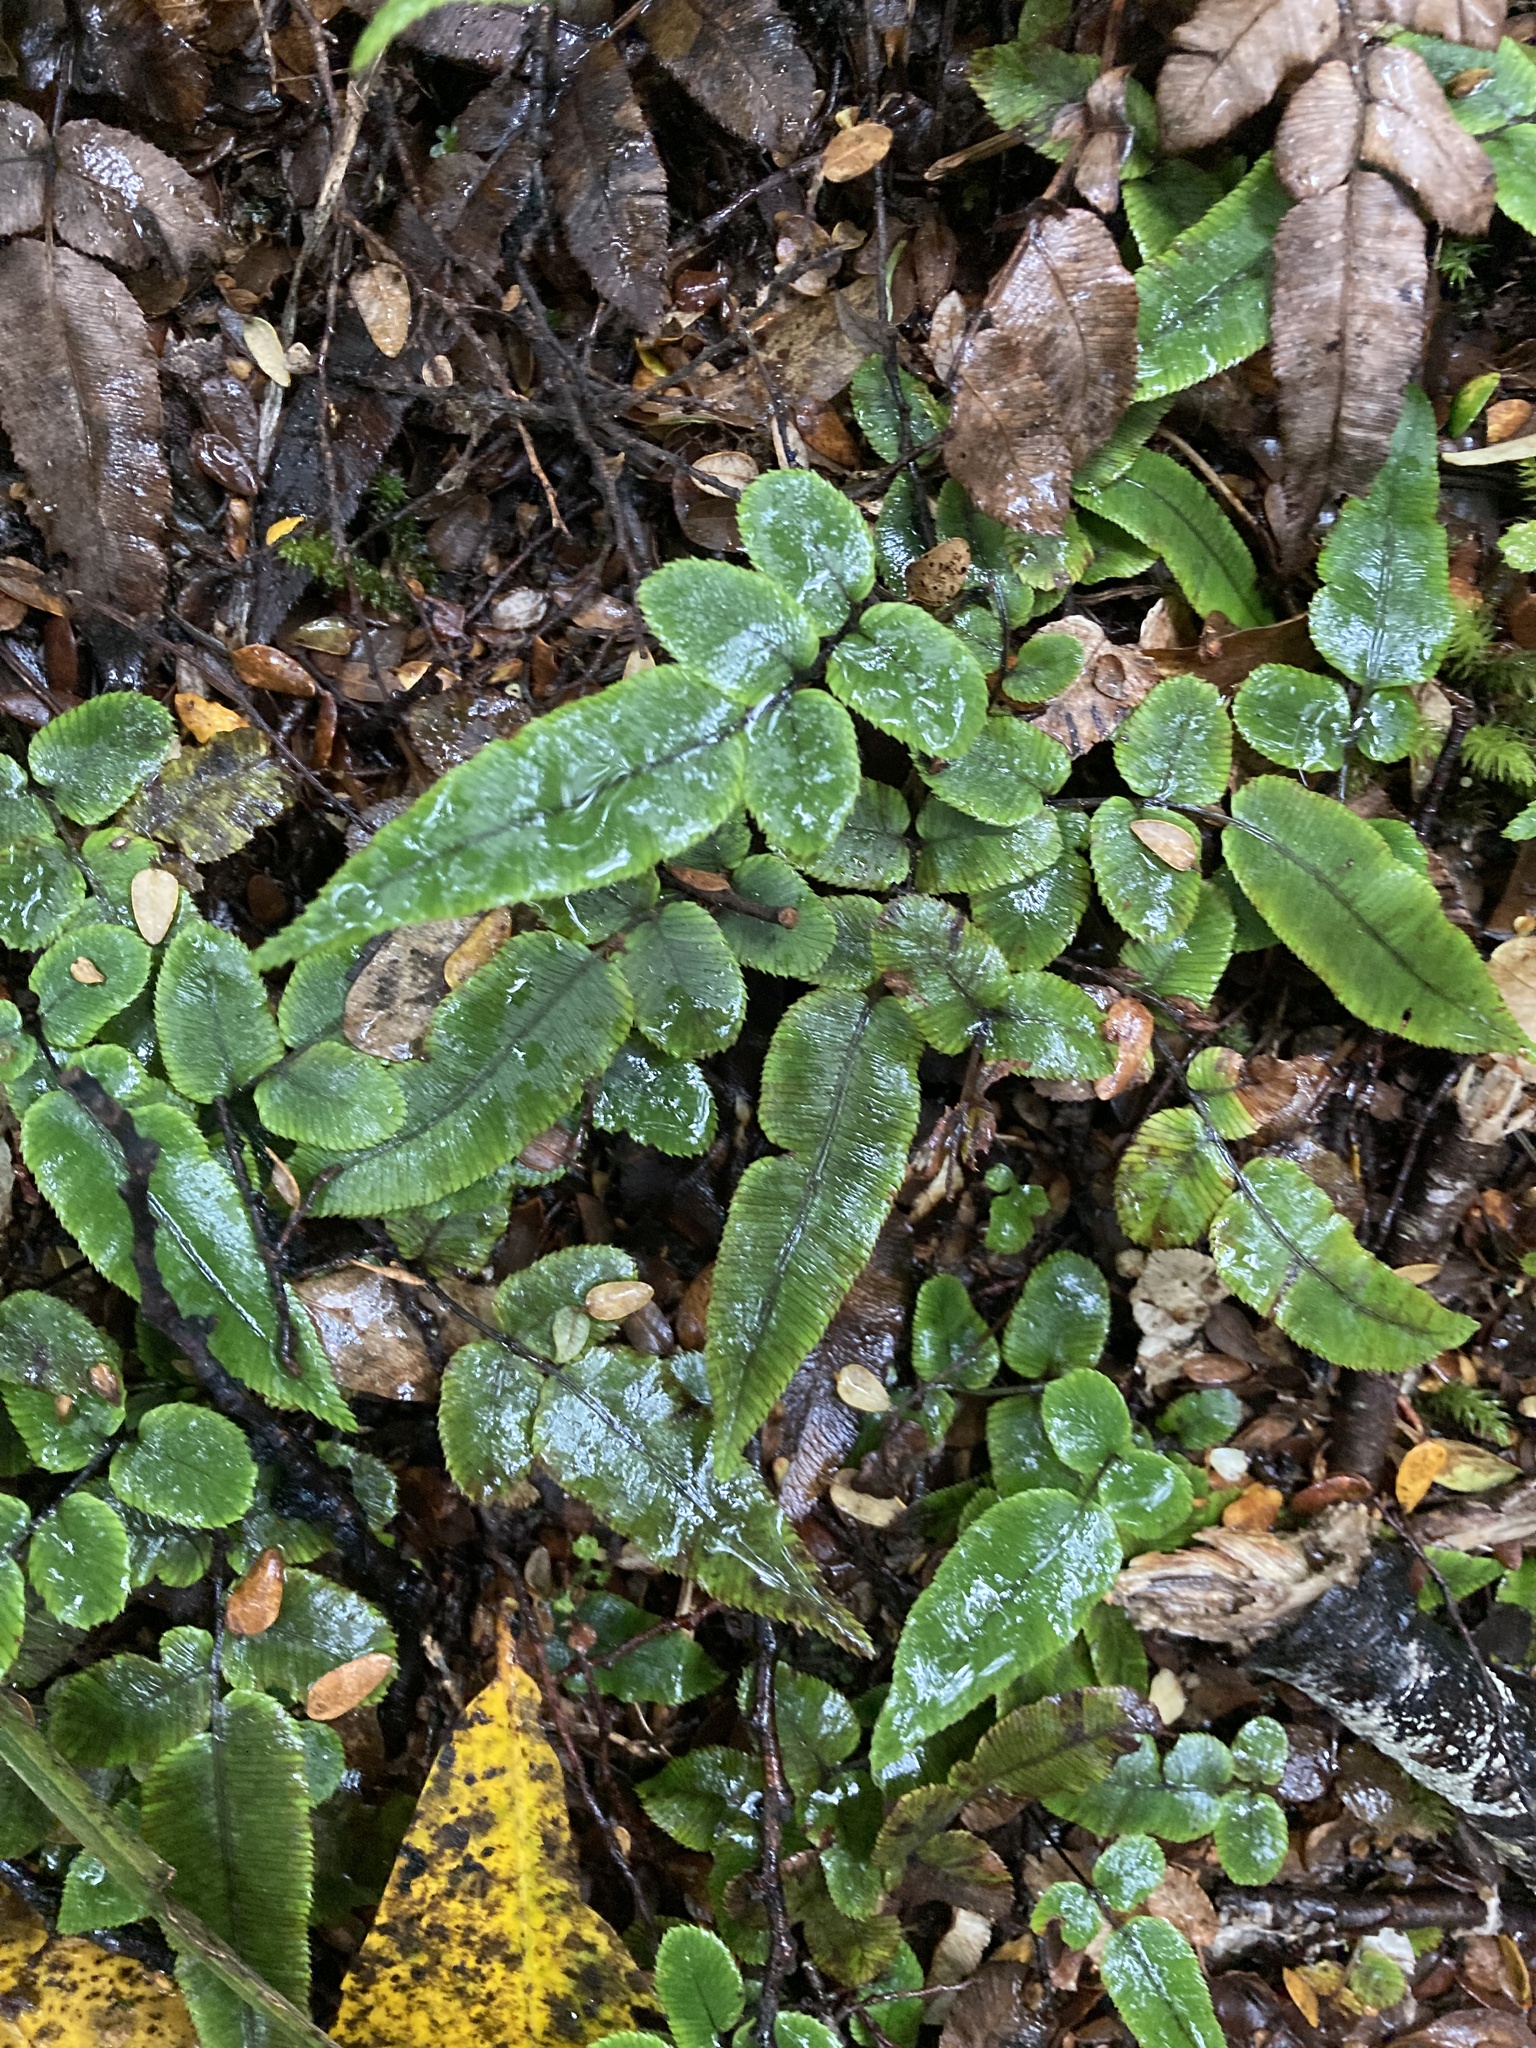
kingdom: Plantae
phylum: Tracheophyta
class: Polypodiopsida
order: Polypodiales
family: Blechnaceae
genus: Parablechnum
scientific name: Parablechnum procerum
